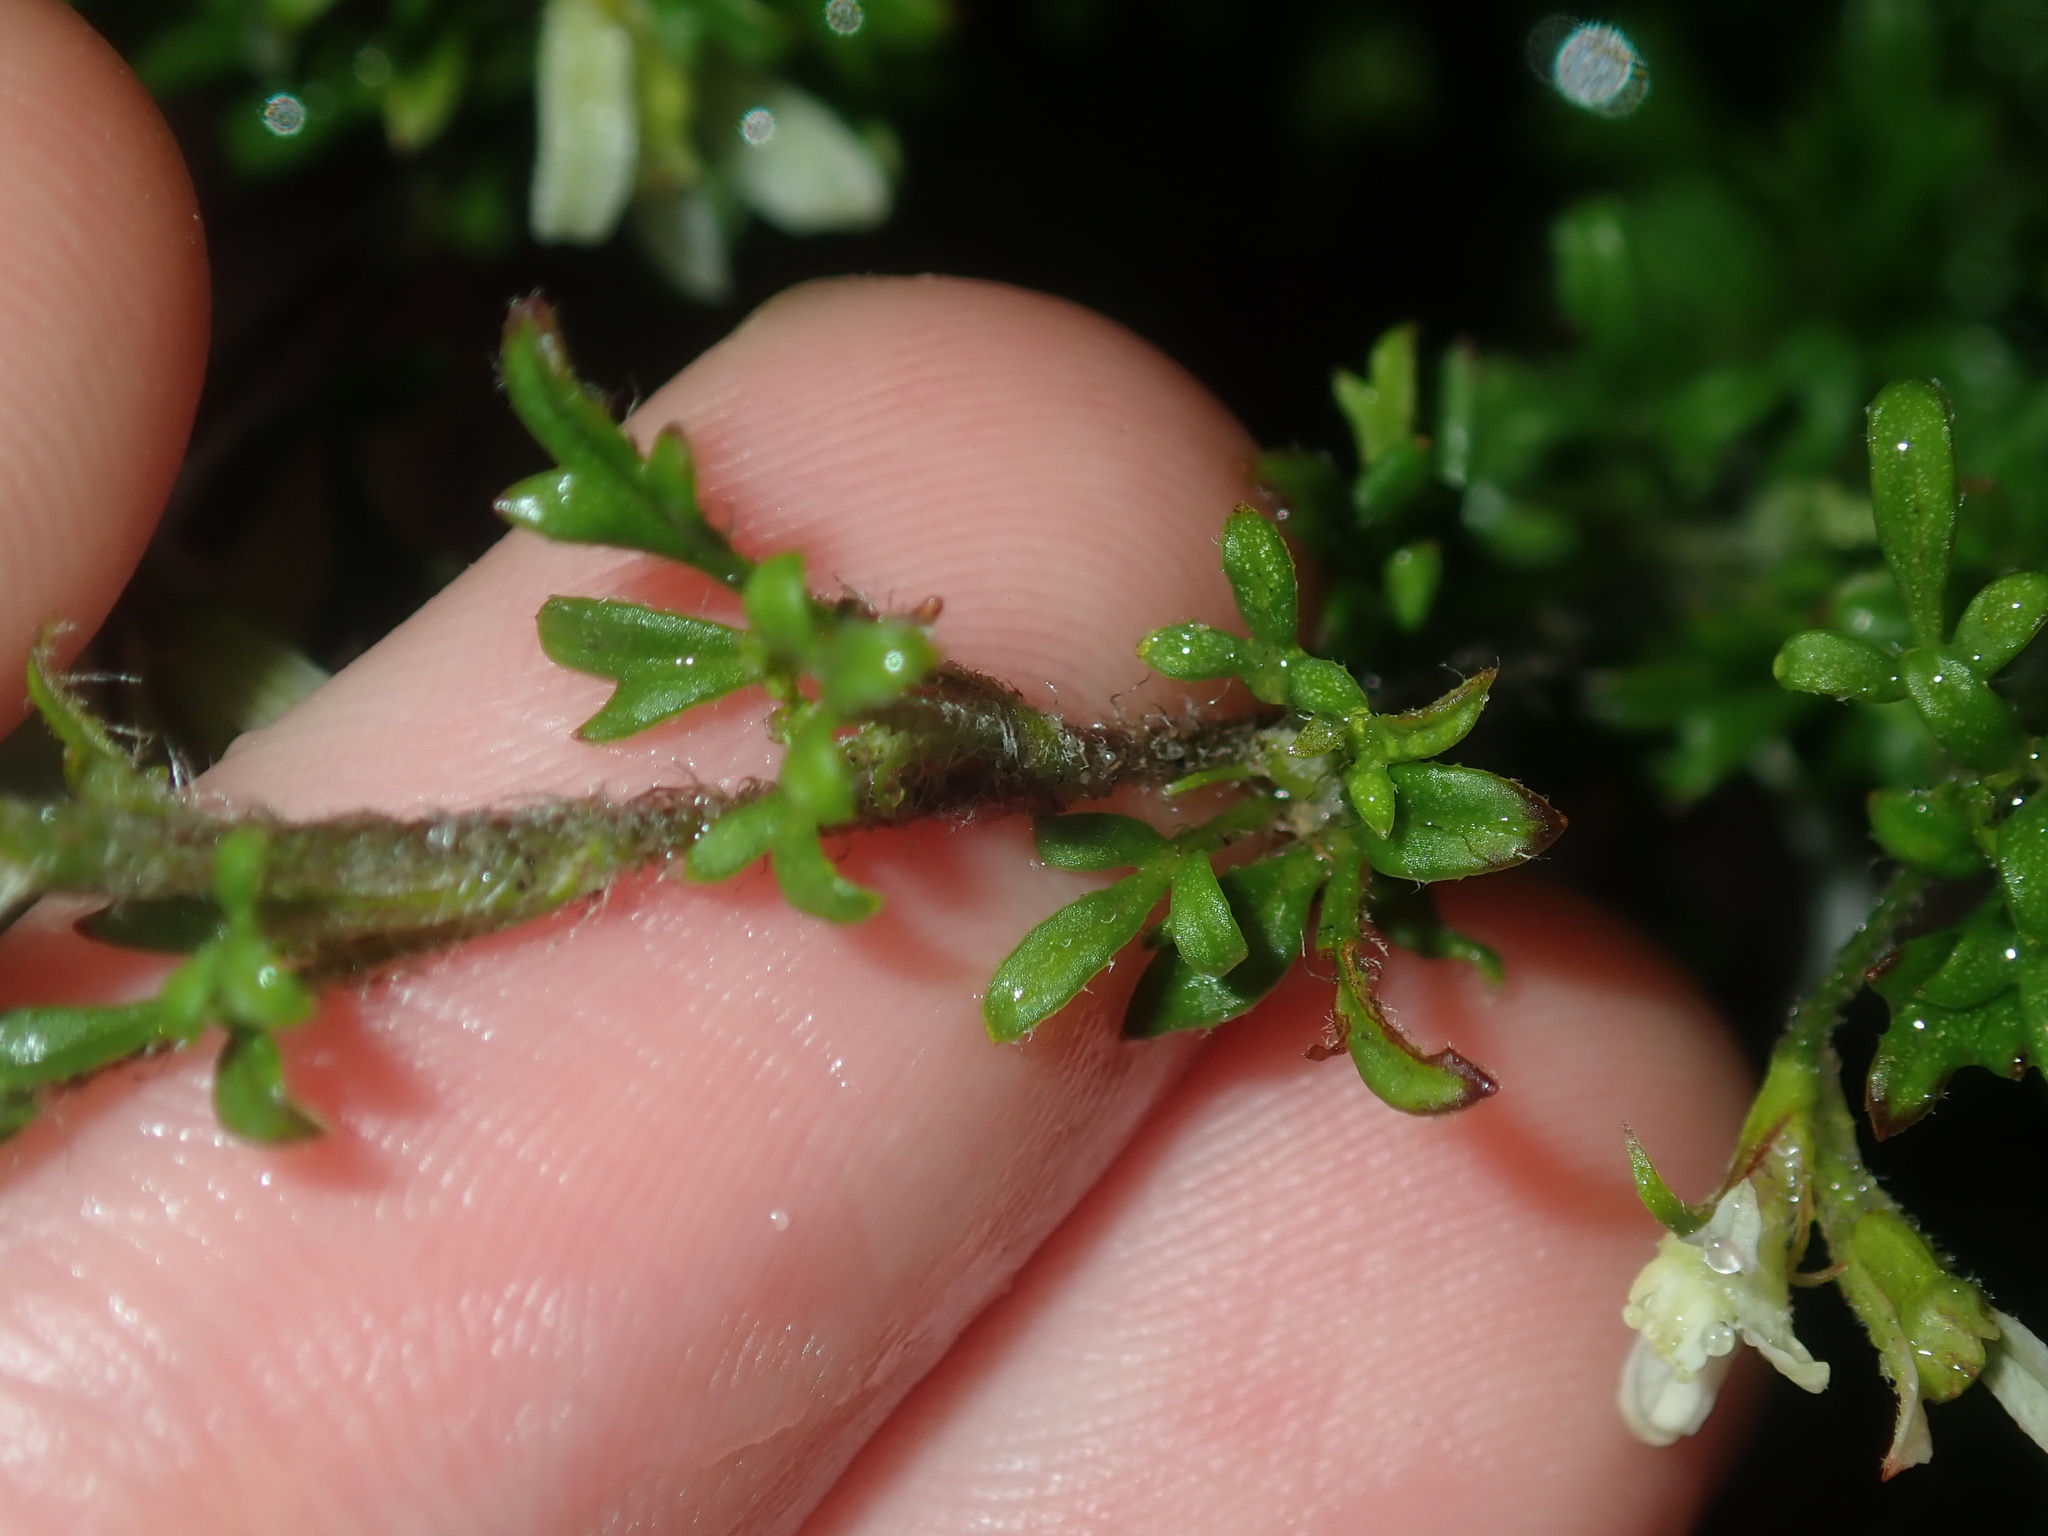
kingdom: Plantae
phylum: Tracheophyta
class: Magnoliopsida
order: Apiales
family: Apiaceae
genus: Xanthosia
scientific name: Xanthosia pilosa
